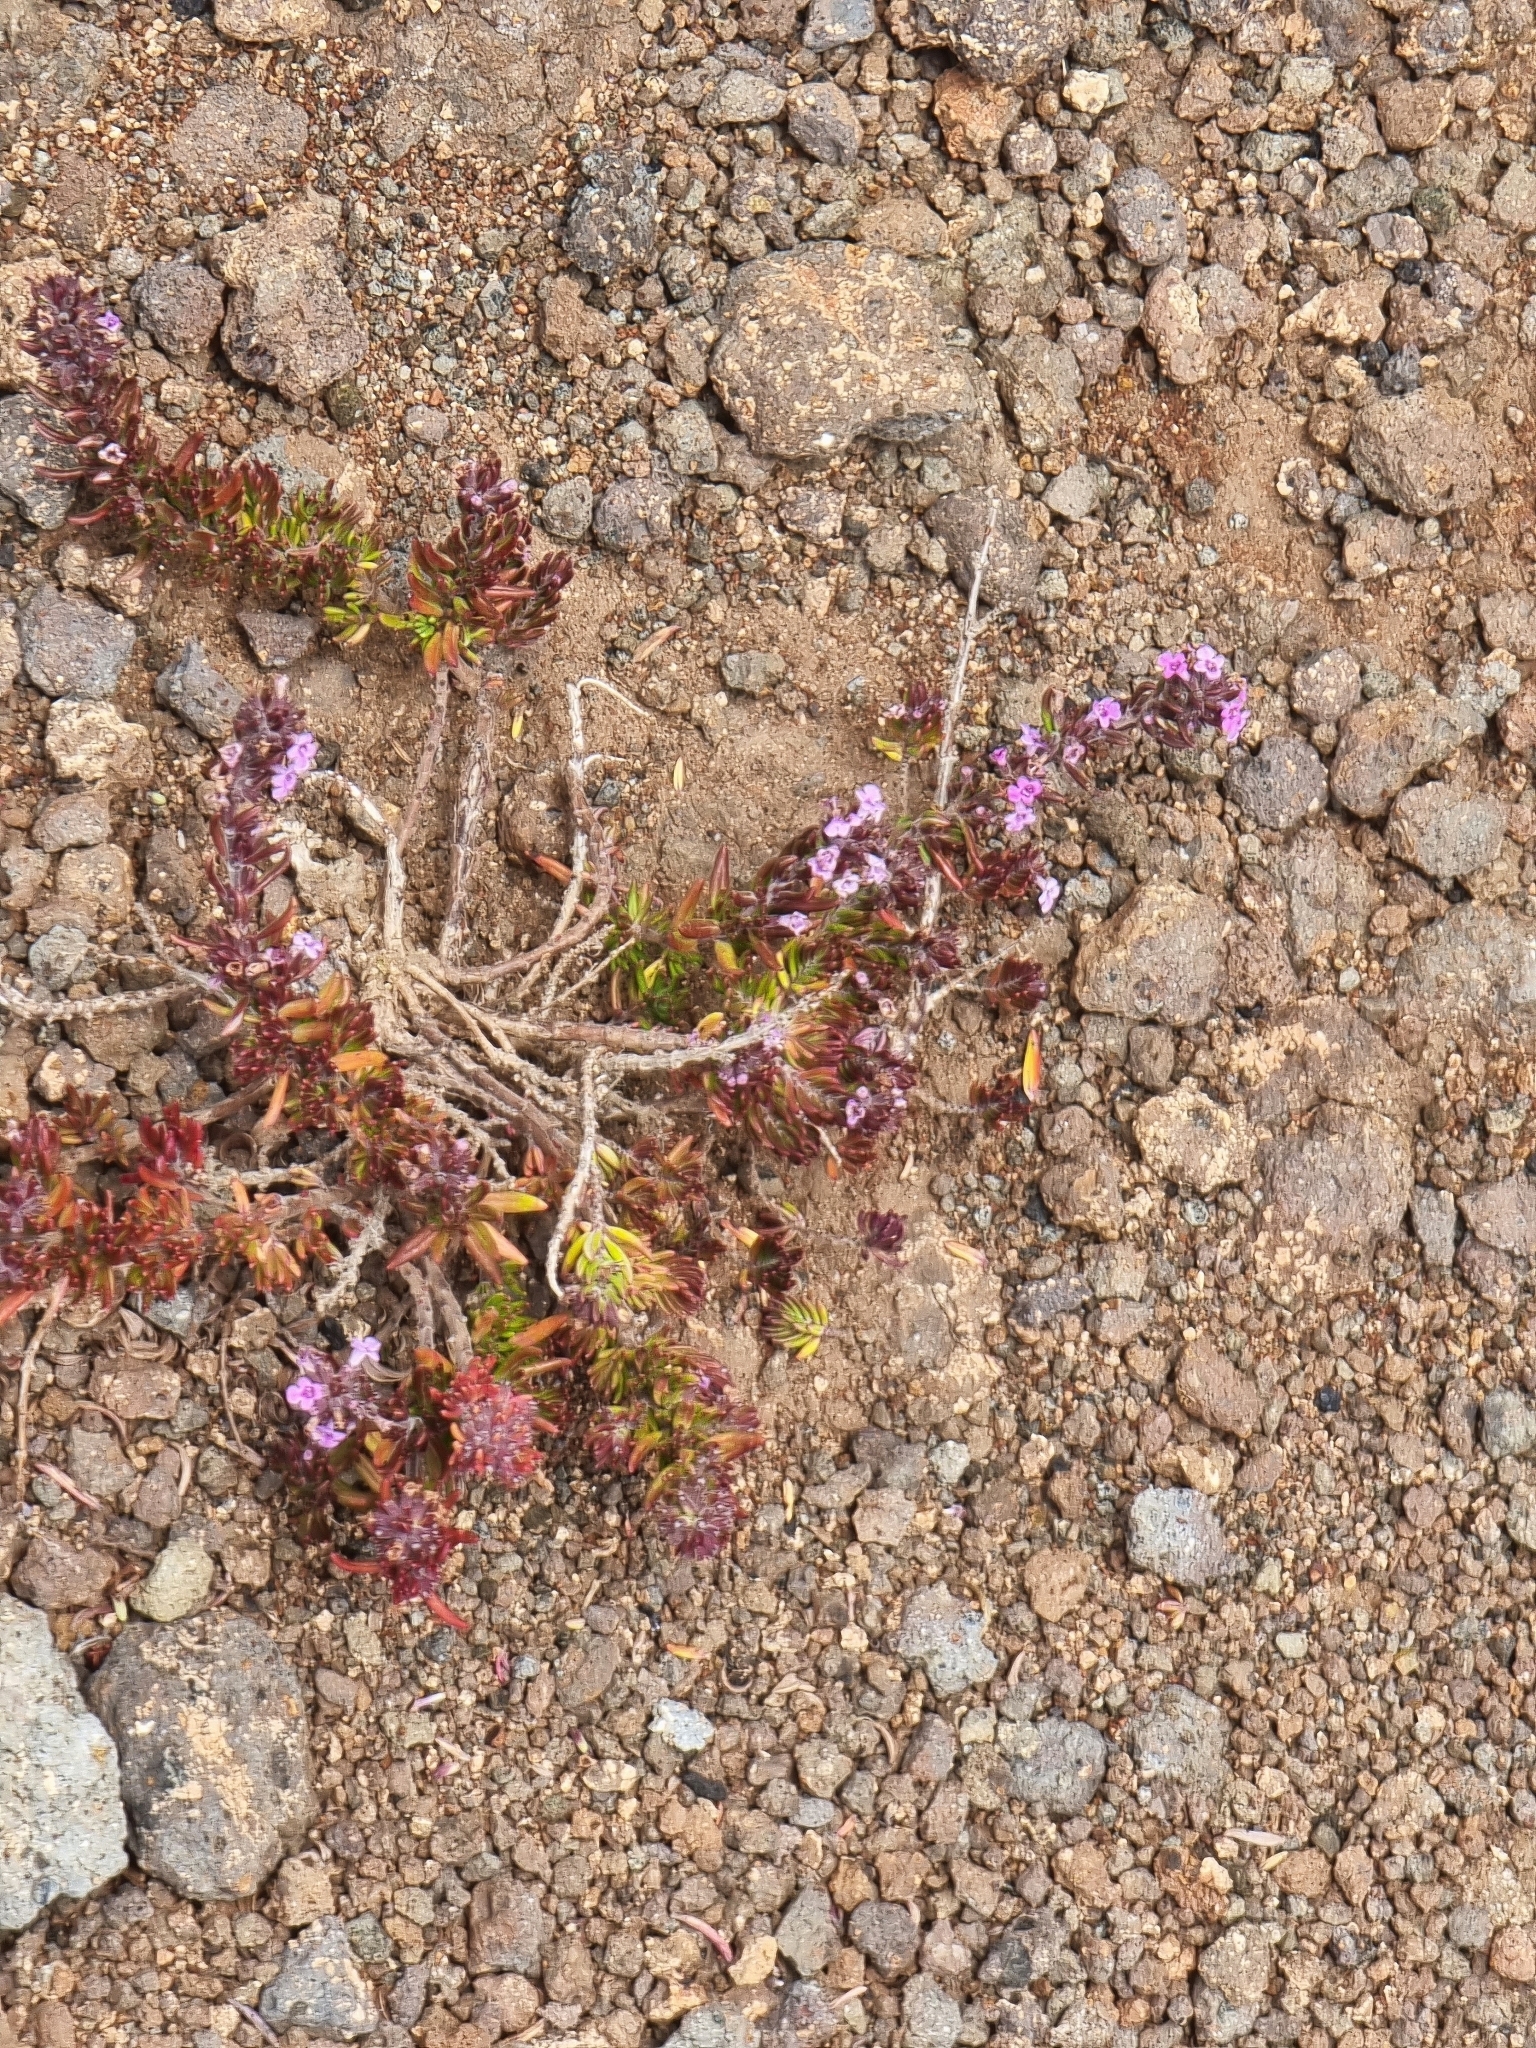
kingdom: Plantae
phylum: Tracheophyta
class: Magnoliopsida
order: Lamiales
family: Lamiaceae
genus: Micromeria
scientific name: Micromeria maderensis
